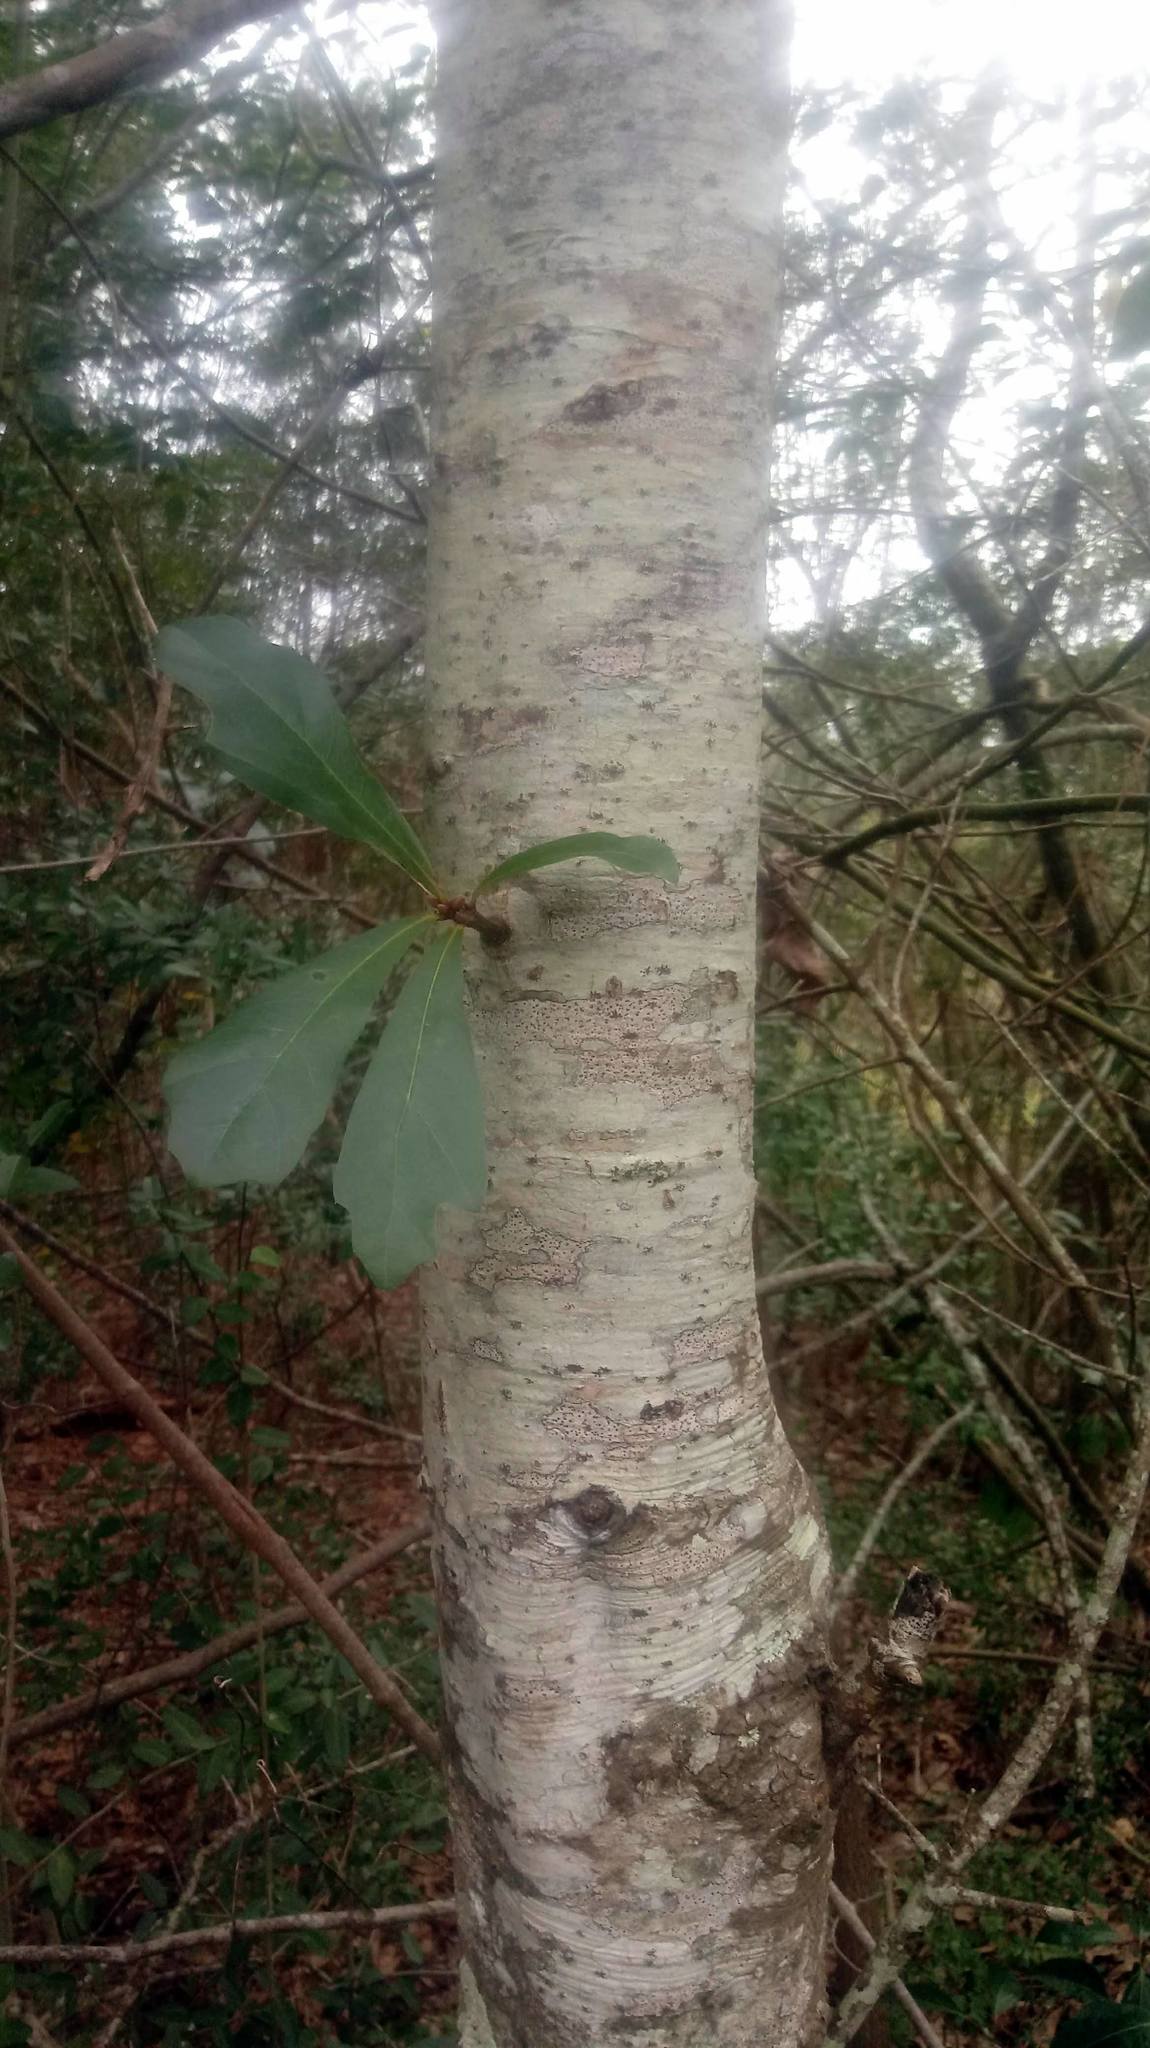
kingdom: Plantae
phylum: Tracheophyta
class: Magnoliopsida
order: Fagales
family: Fagaceae
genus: Quercus
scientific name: Quercus nigra
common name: Water oak
